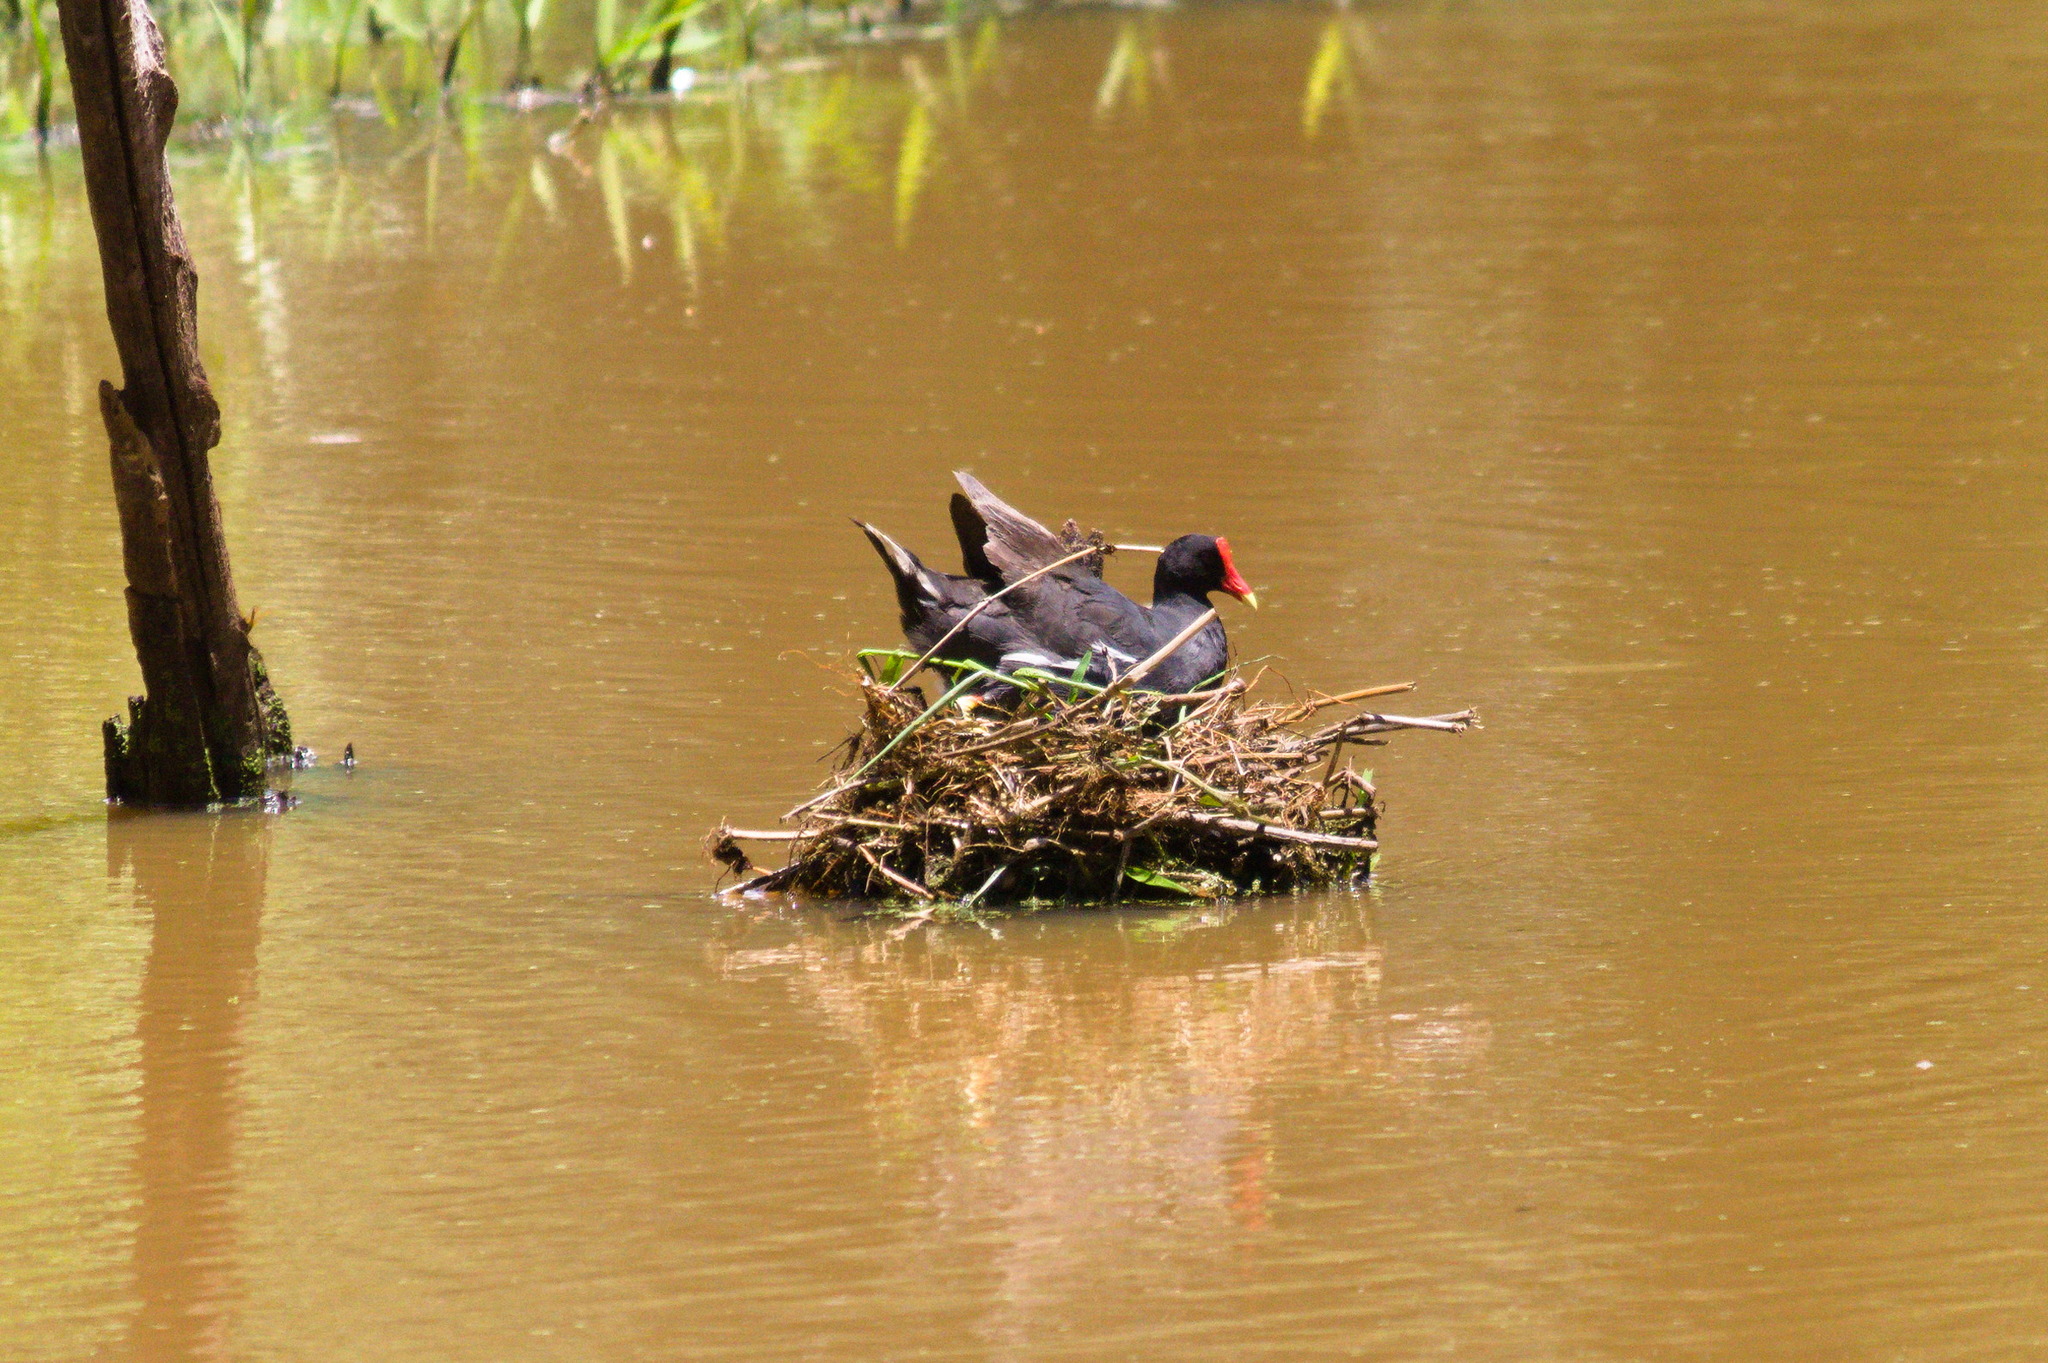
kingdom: Animalia
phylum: Chordata
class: Aves
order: Gruiformes
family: Rallidae
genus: Gallinula
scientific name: Gallinula chloropus
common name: Common moorhen
